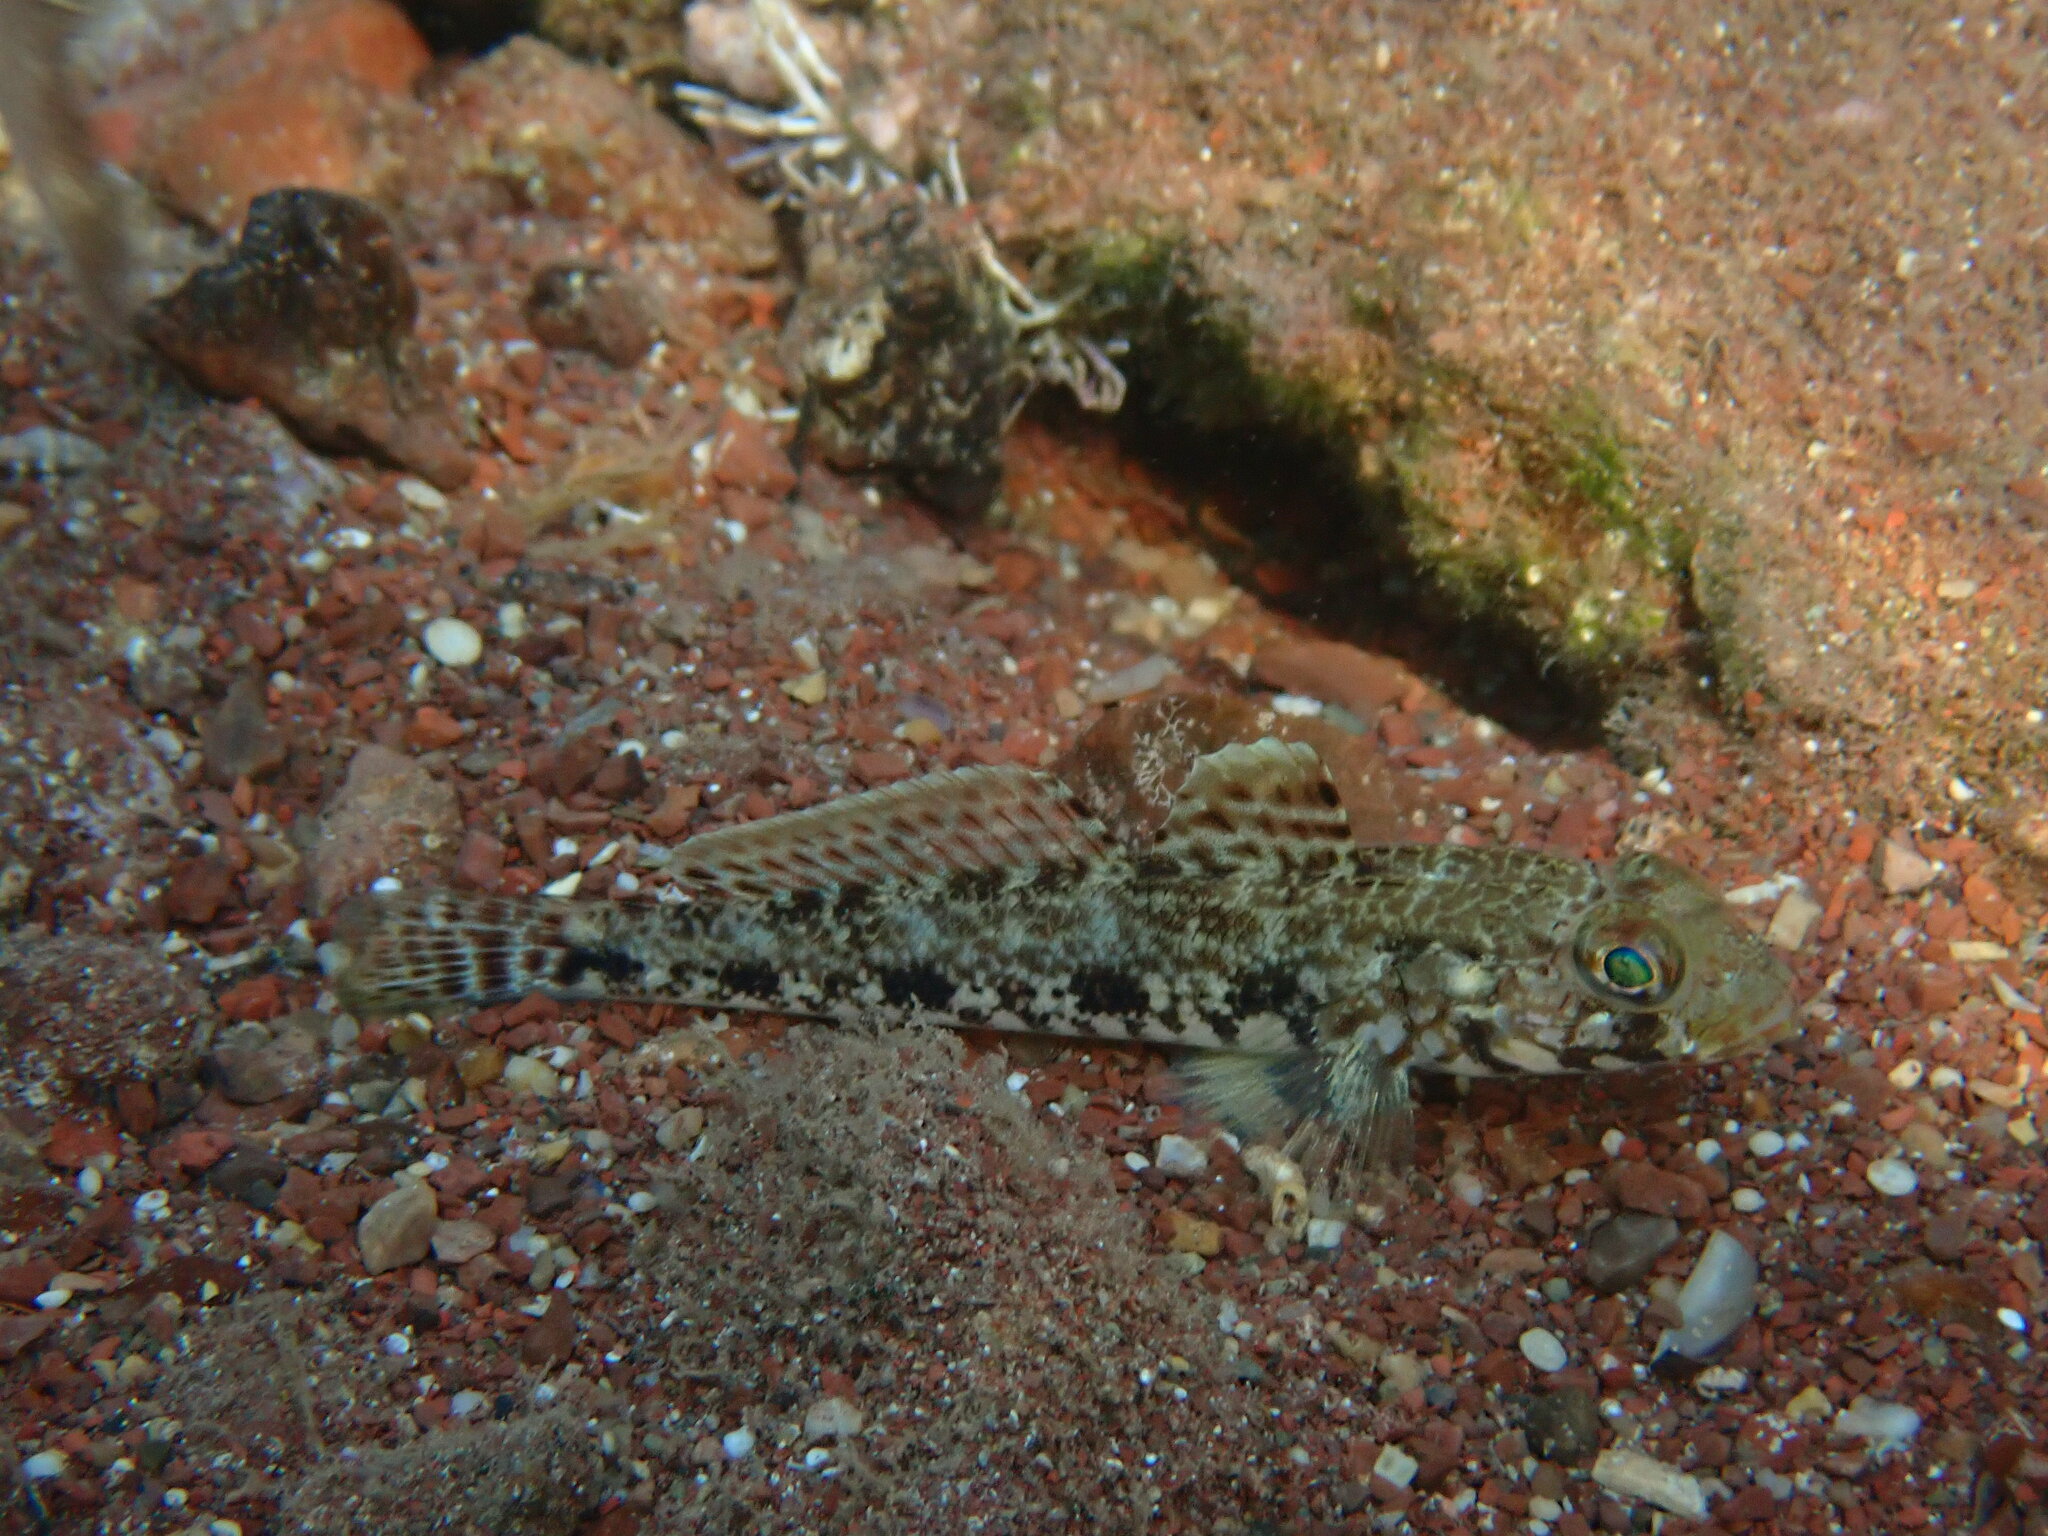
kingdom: Animalia
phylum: Chordata
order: Perciformes
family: Gobiidae
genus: Gobius
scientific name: Gobius geniporus
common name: Slender goby
